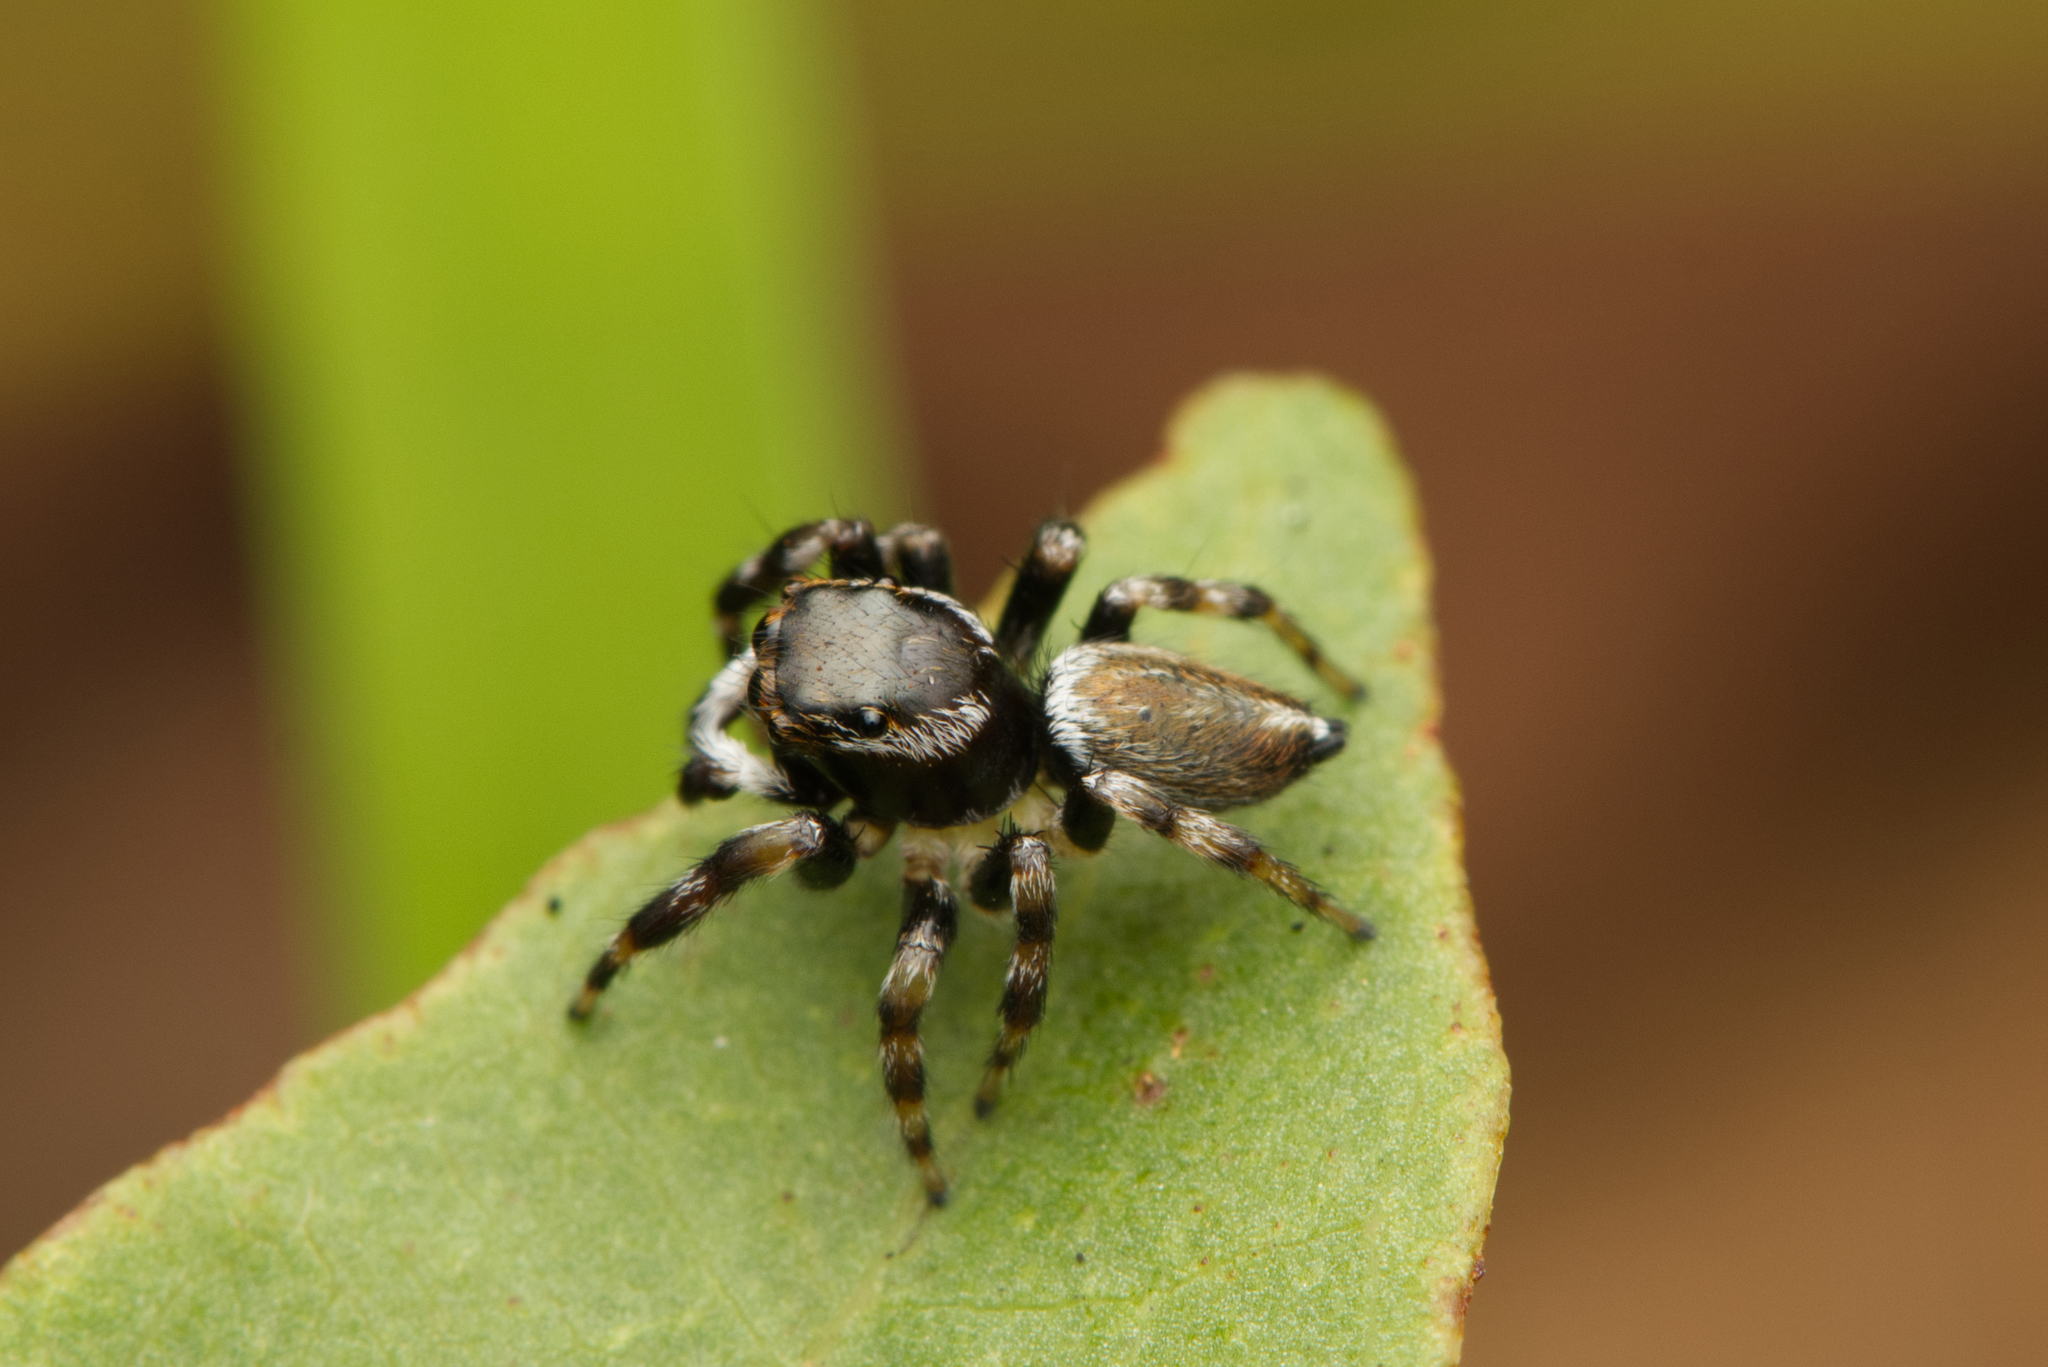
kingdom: Animalia
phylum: Arthropoda
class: Arachnida
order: Araneae
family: Salticidae
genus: Maratus
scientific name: Maratus scutulatus
